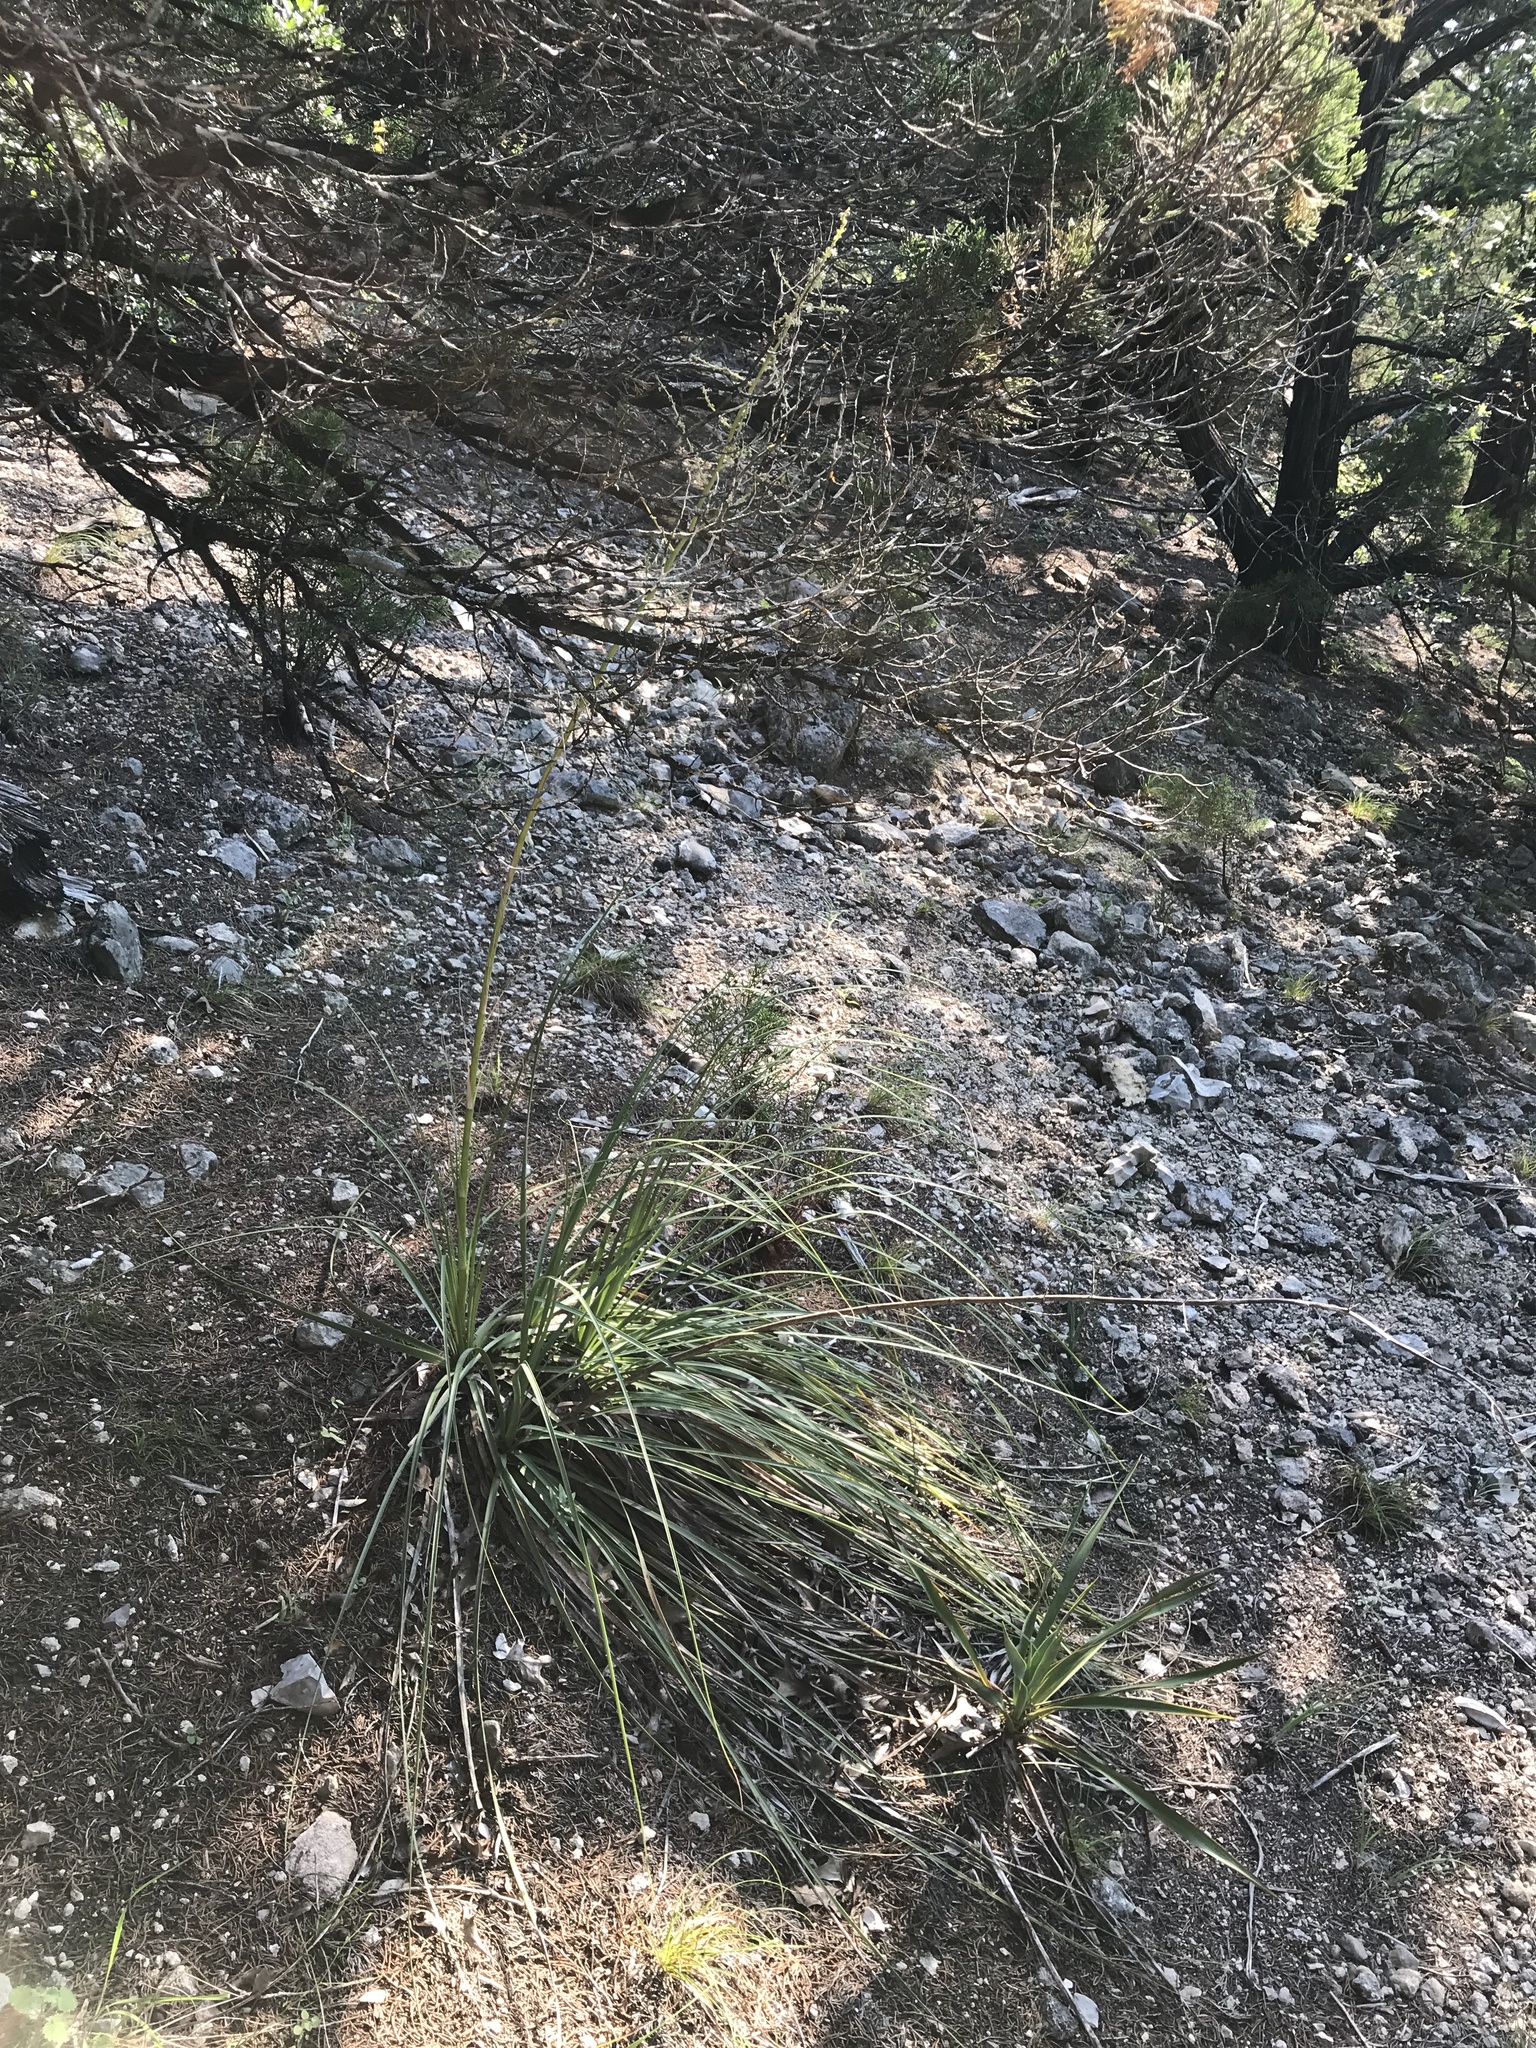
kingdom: Plantae
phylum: Tracheophyta
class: Liliopsida
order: Asparagales
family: Asparagaceae
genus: Nolina
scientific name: Nolina lindheimeriana
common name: Lindheimer's bear-grass
